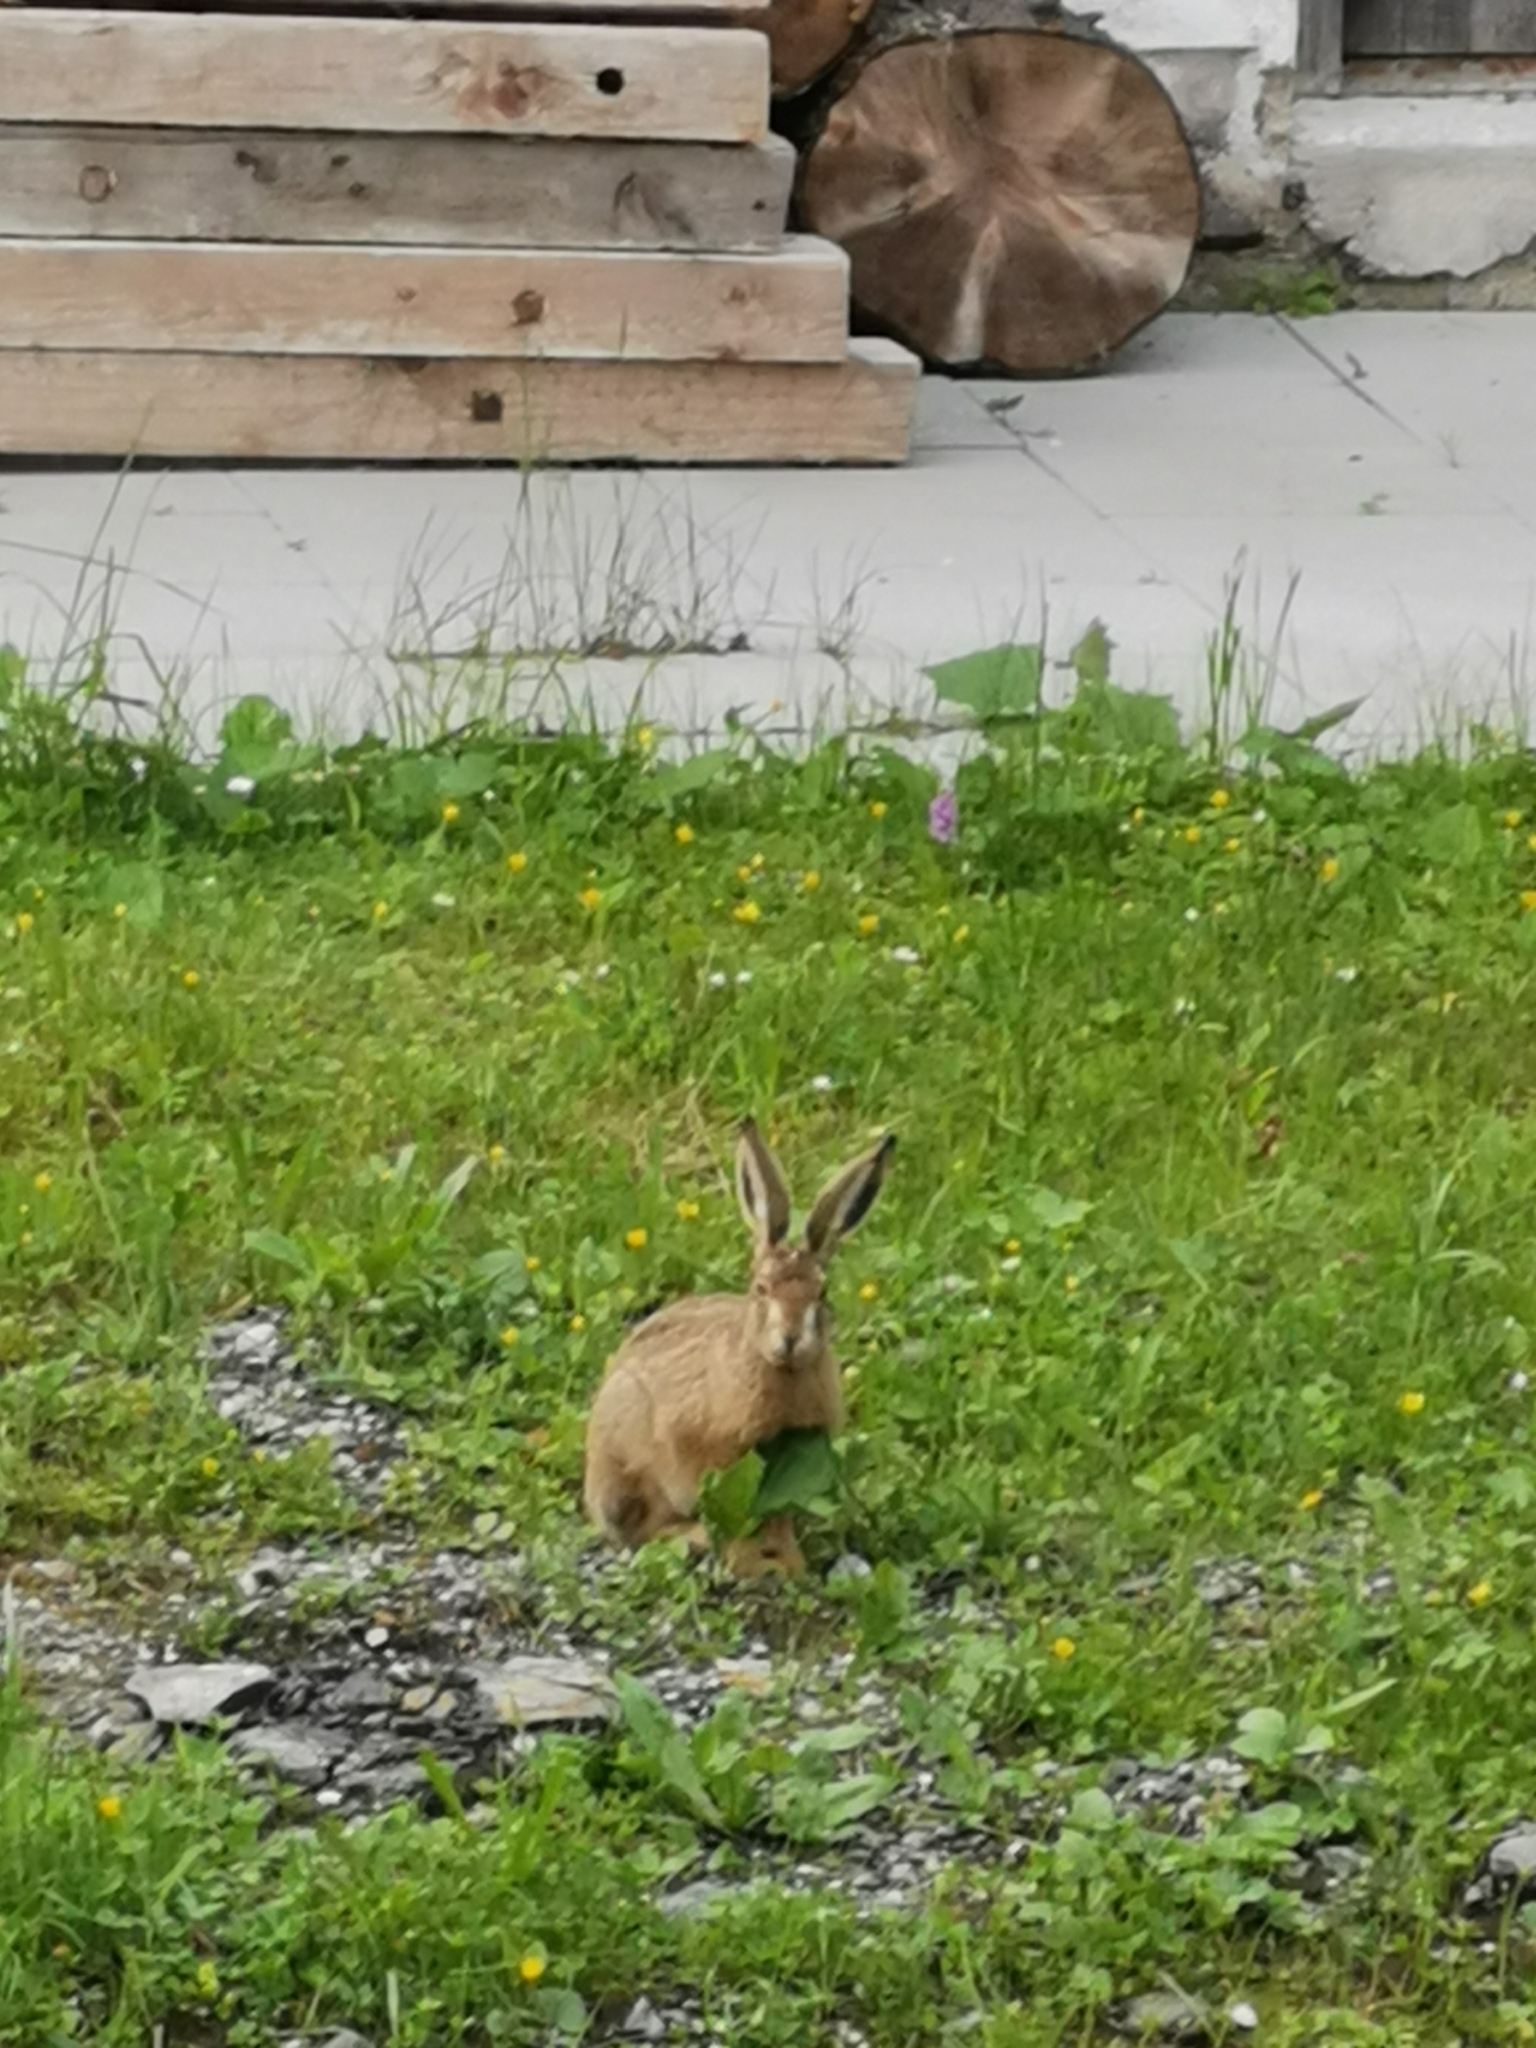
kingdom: Animalia
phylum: Chordata
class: Mammalia
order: Lagomorpha
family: Leporidae
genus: Lepus
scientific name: Lepus europaeus
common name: European hare
